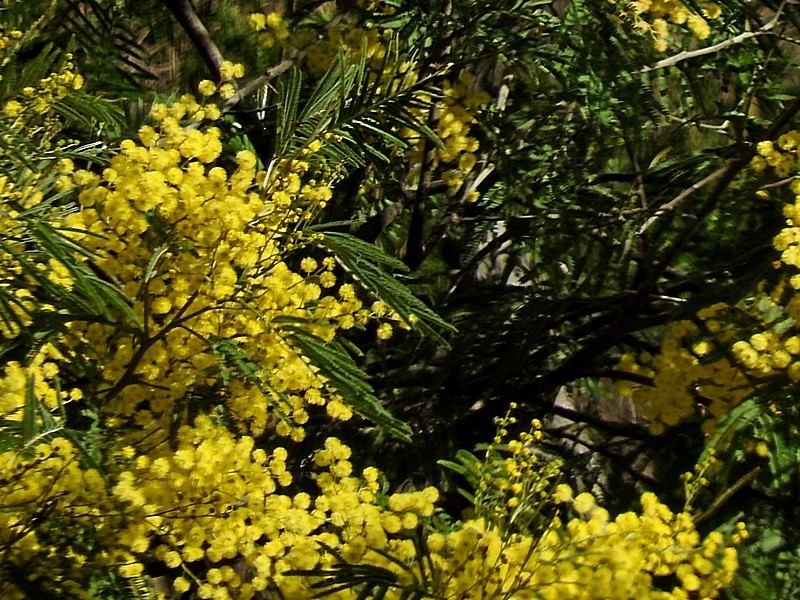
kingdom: Plantae
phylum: Tracheophyta
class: Magnoliopsida
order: Fabales
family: Fabaceae
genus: Acacia
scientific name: Acacia silvestris
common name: Bodalla wattle
